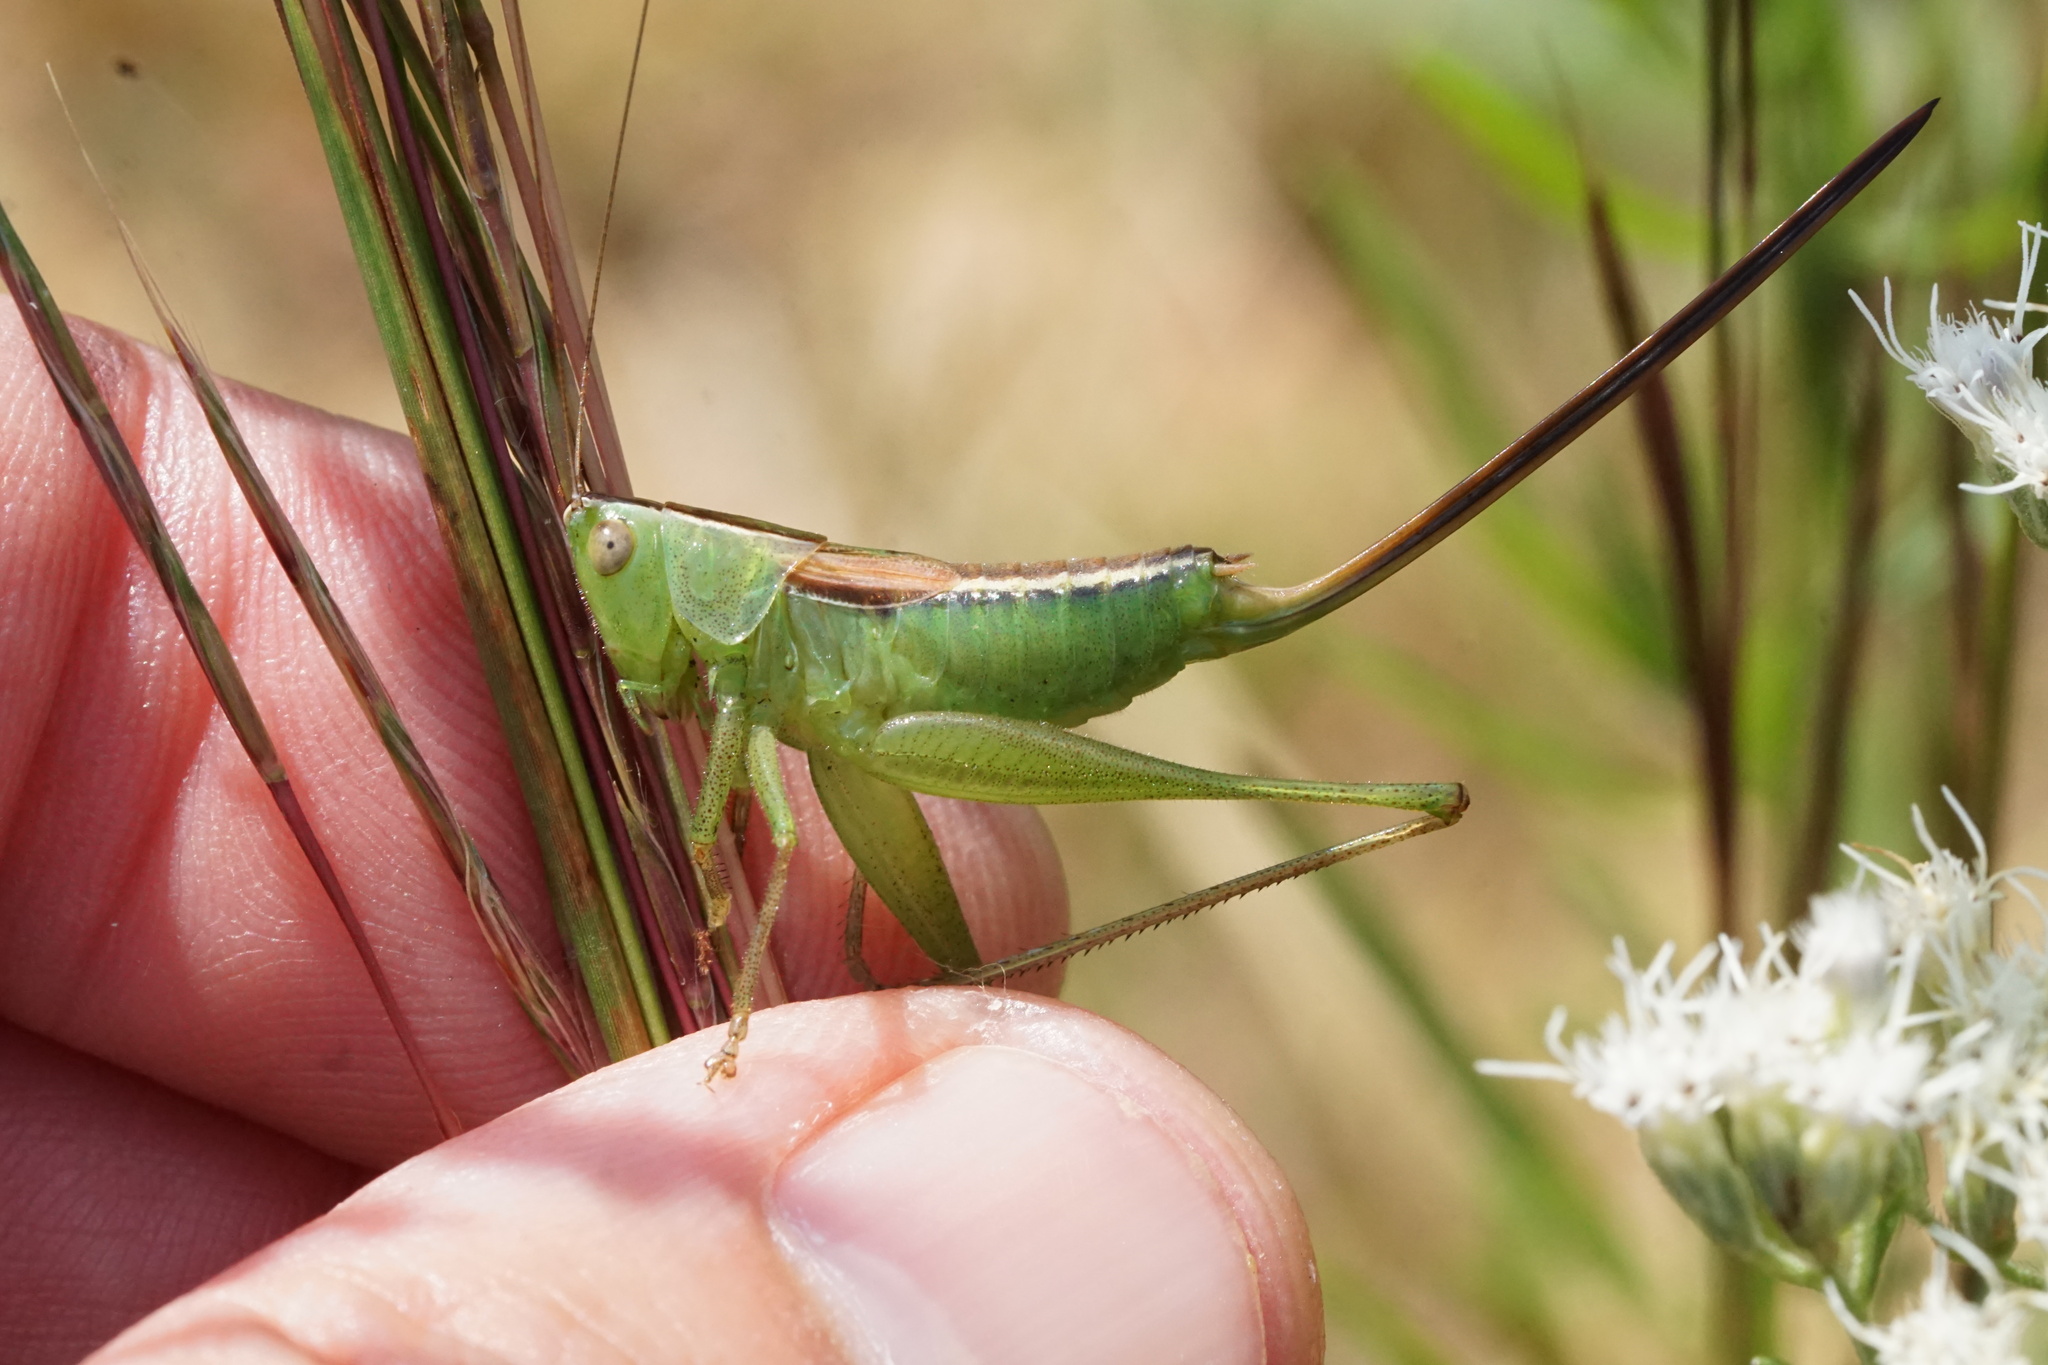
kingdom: Animalia
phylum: Arthropoda
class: Insecta
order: Orthoptera
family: Tettigoniidae
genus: Conocephalus
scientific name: Conocephalus strictus
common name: Straight-lanced katydid
